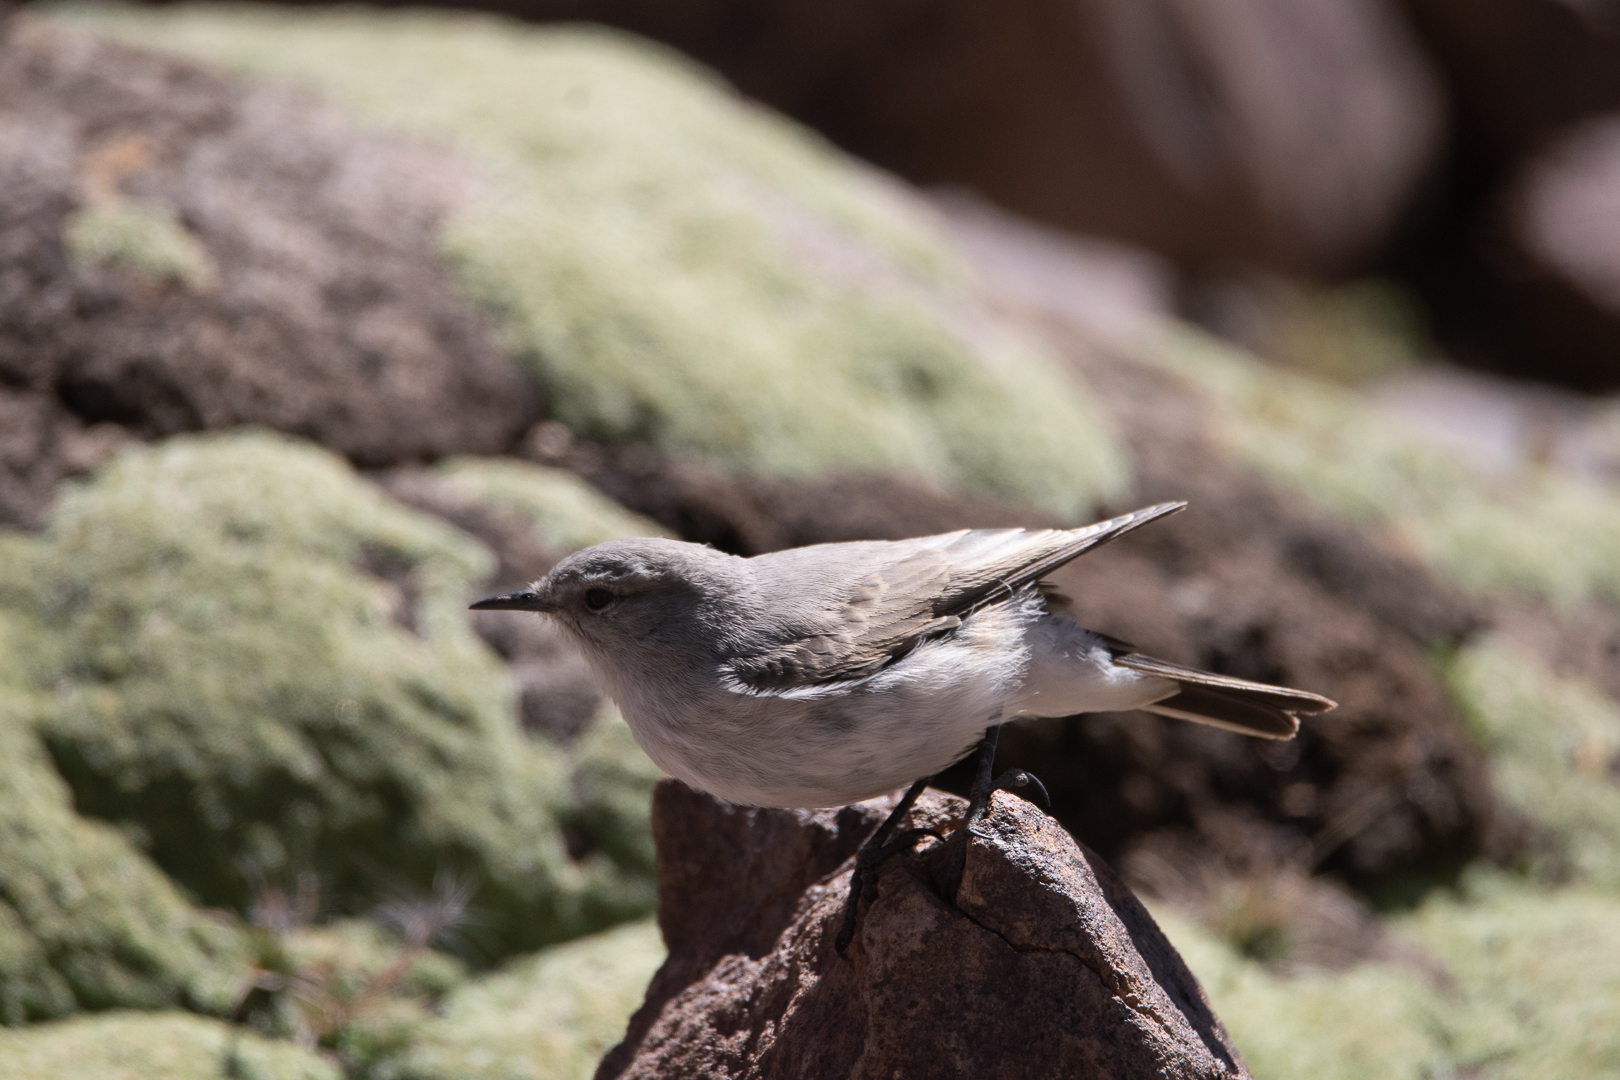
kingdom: Animalia
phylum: Chordata
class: Aves
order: Passeriformes
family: Tyrannidae
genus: Muscisaxicola
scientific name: Muscisaxicola cinereus
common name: Cinereous ground tyrant
